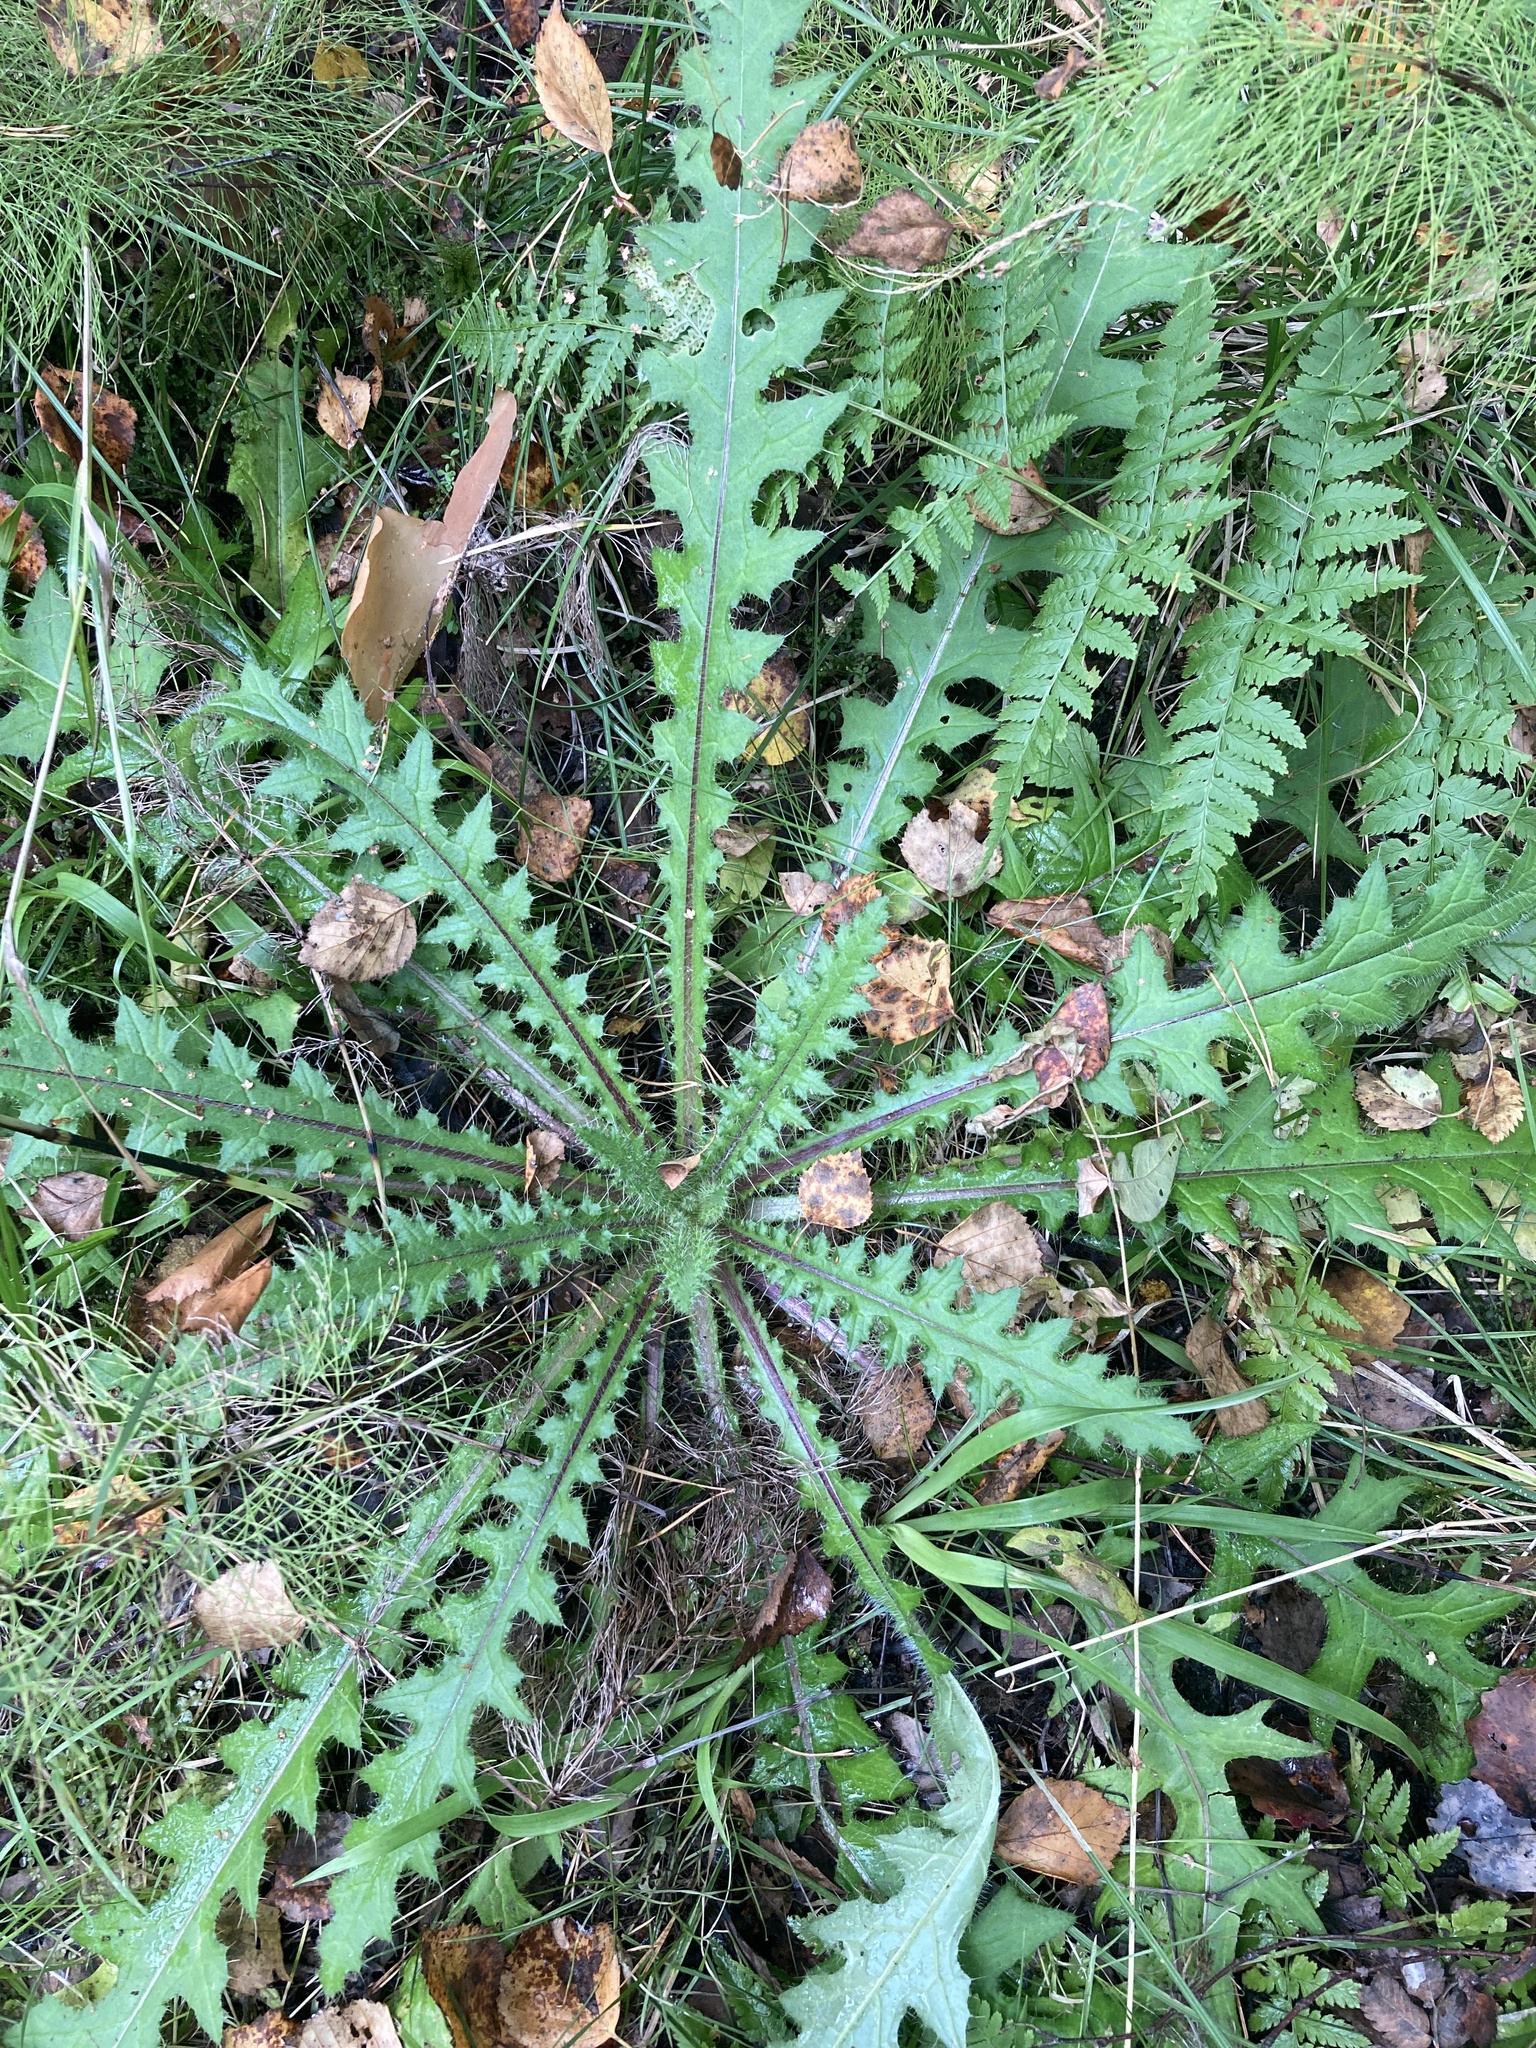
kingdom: Plantae
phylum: Tracheophyta
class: Magnoliopsida
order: Asterales
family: Asteraceae
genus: Cirsium
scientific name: Cirsium palustre
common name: Marsh thistle
